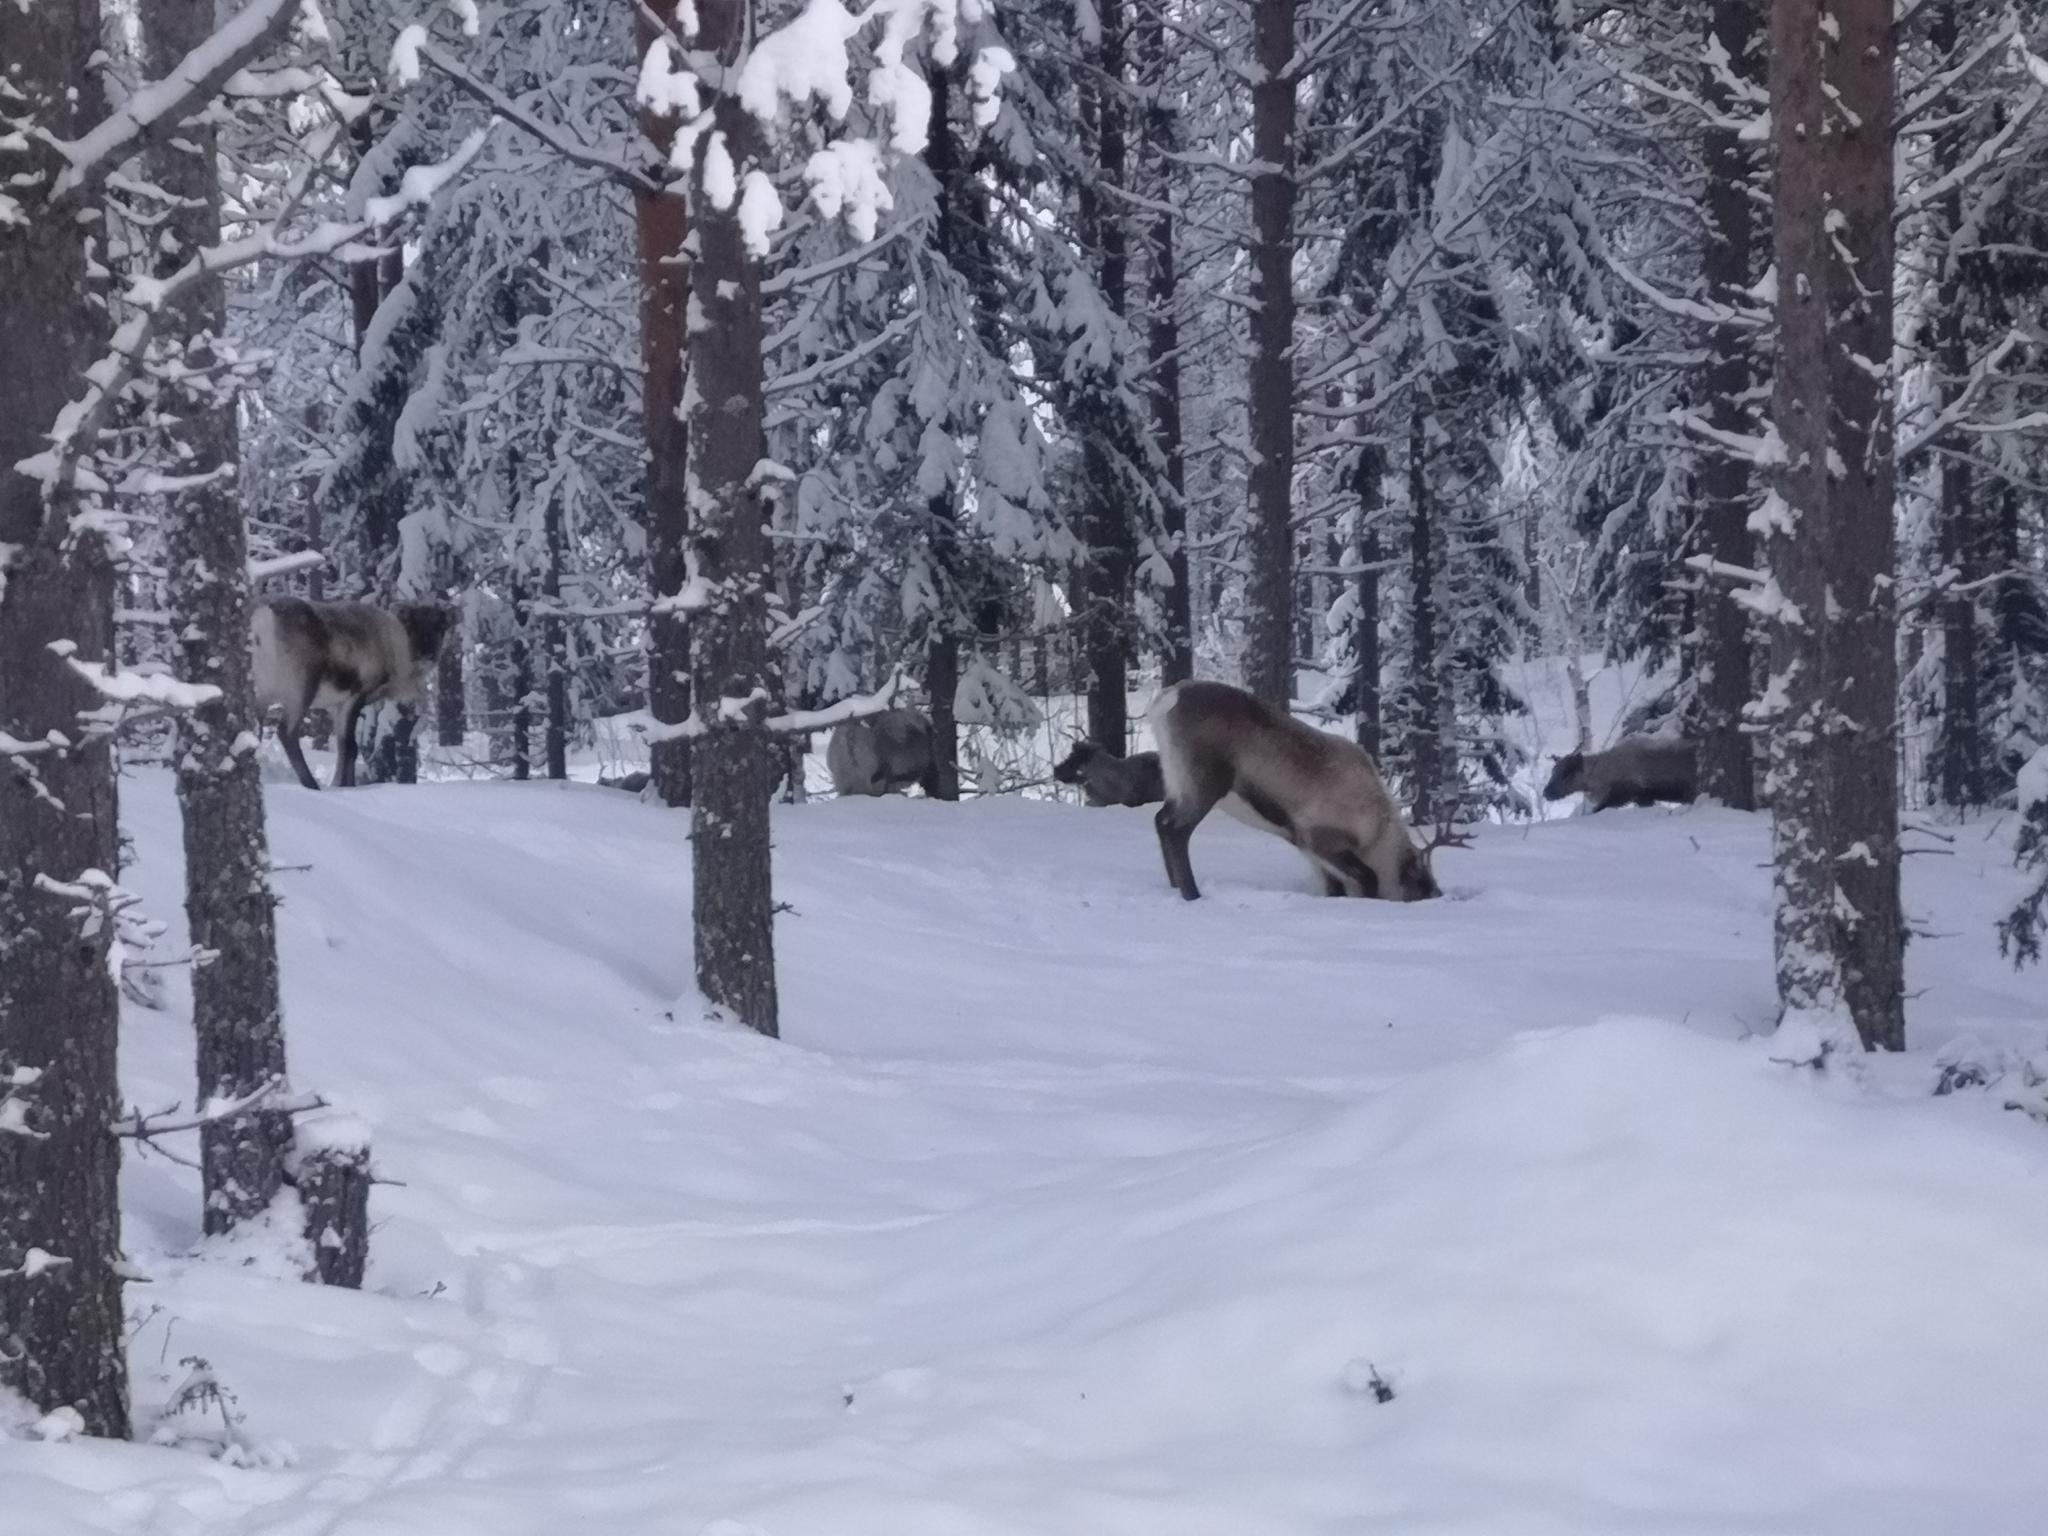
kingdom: Animalia
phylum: Chordata
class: Mammalia
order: Artiodactyla
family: Cervidae
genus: Rangifer
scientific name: Rangifer tarandus
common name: Reindeer
